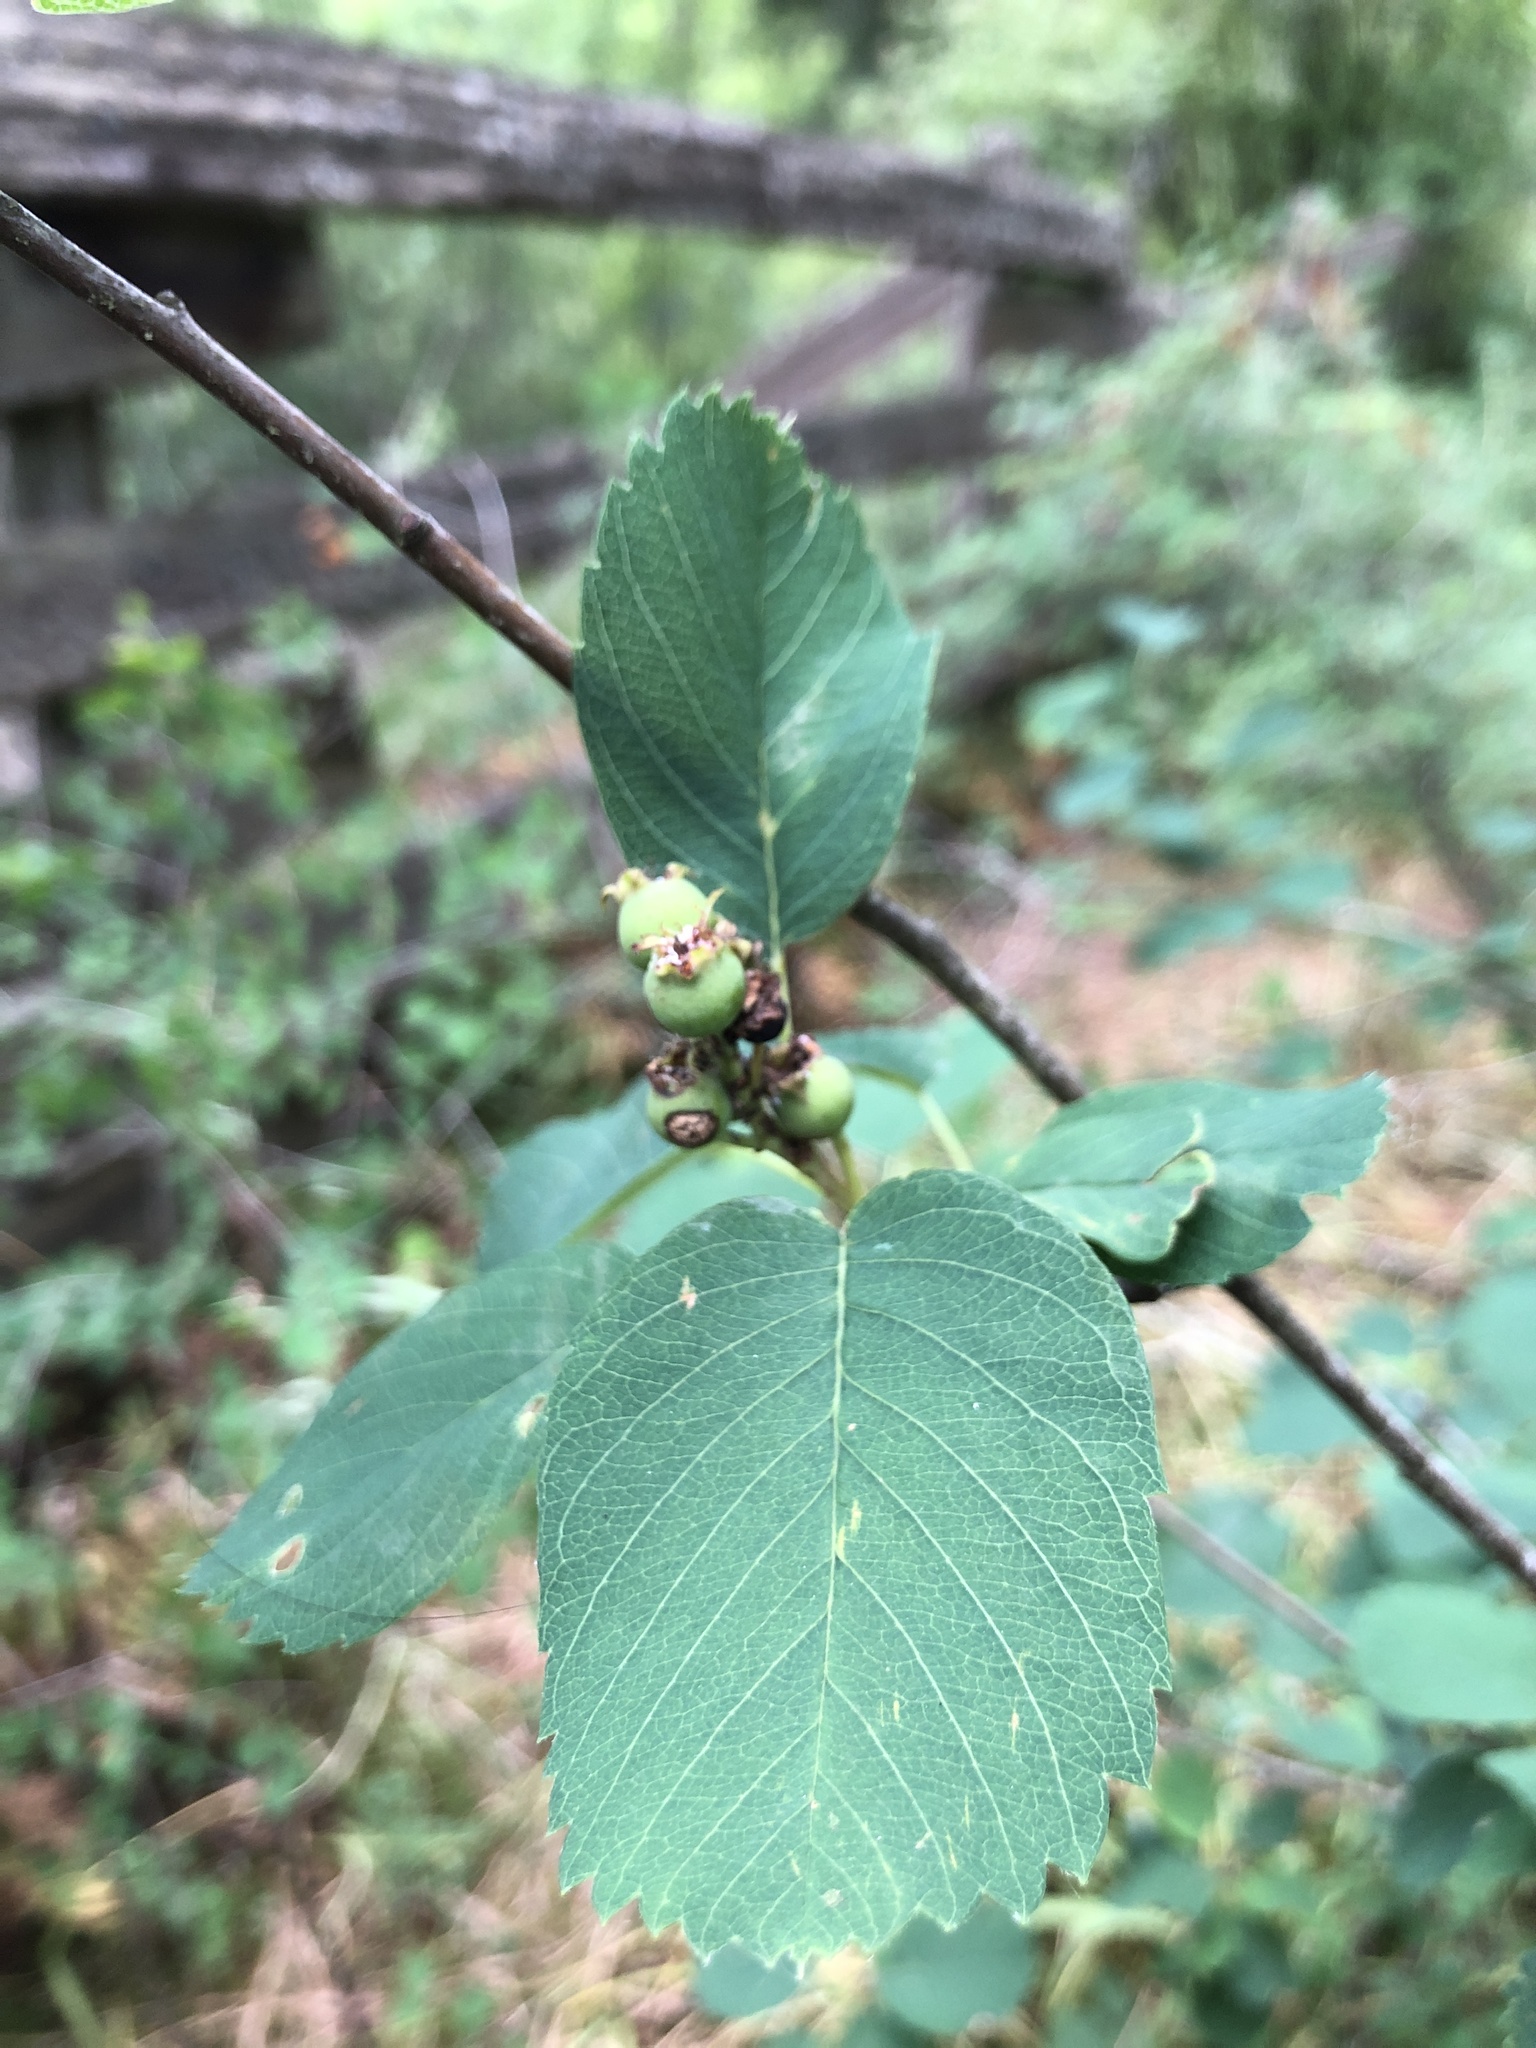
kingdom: Plantae
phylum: Tracheophyta
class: Magnoliopsida
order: Rosales
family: Rosaceae
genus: Amelanchier
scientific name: Amelanchier alnifolia
